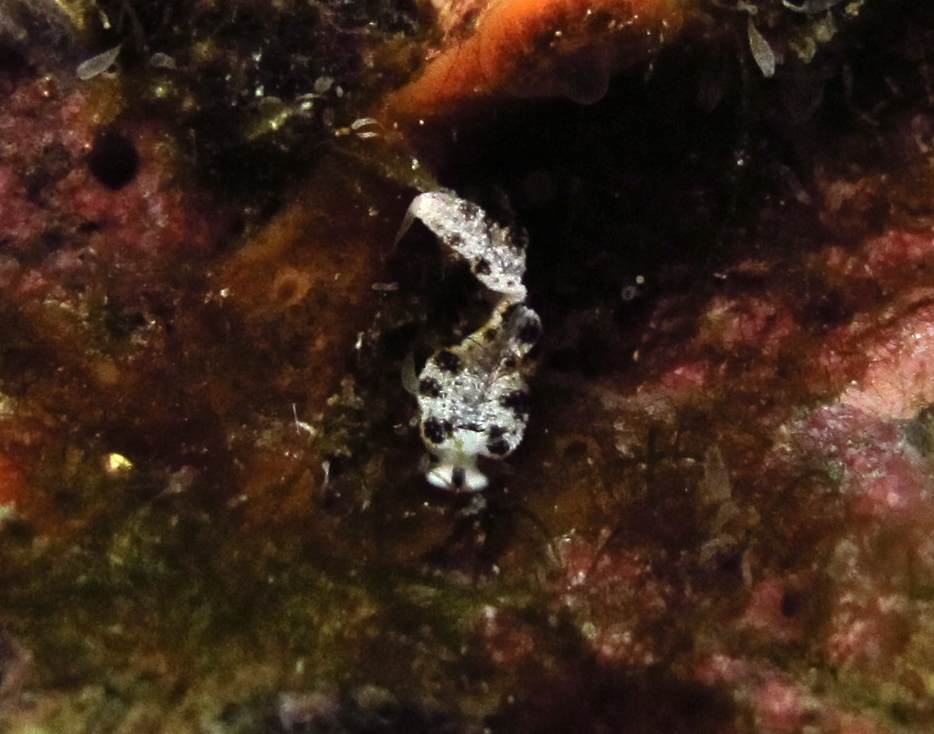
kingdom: Animalia
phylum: Mollusca
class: Gastropoda
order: Nudibranchia
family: Arminidae
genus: Dermatobranchus
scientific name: Dermatobranchus fortunatus
